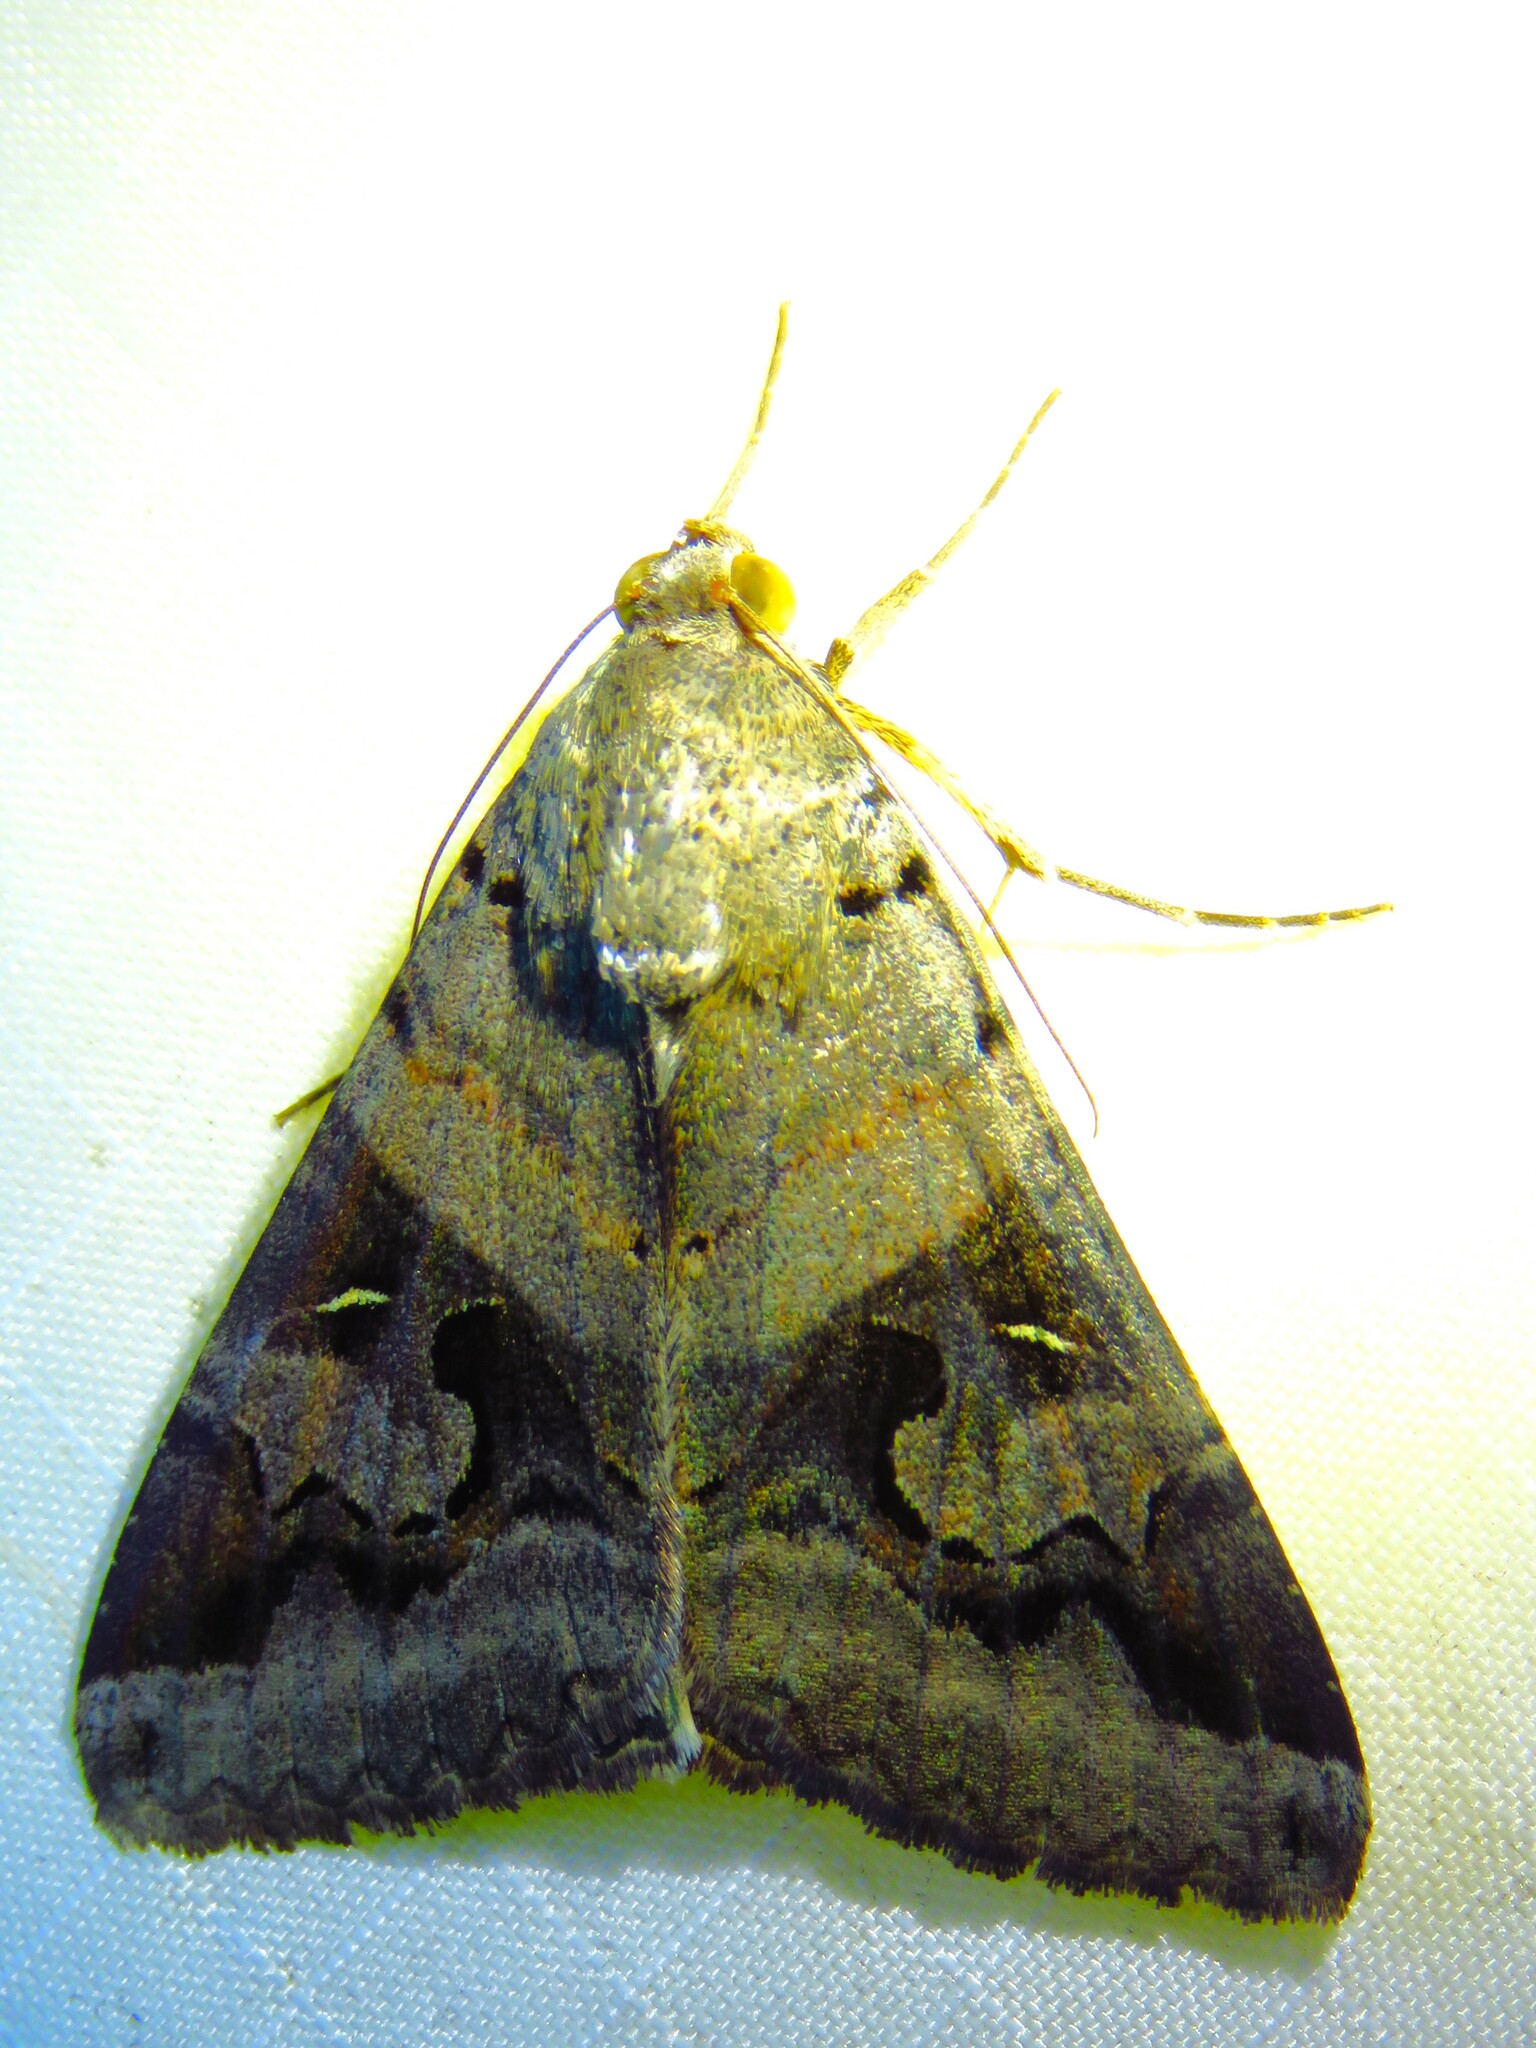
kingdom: Animalia
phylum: Arthropoda
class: Insecta
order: Lepidoptera
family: Erebidae
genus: Melipotis
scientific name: Melipotis indomita
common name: Moth
